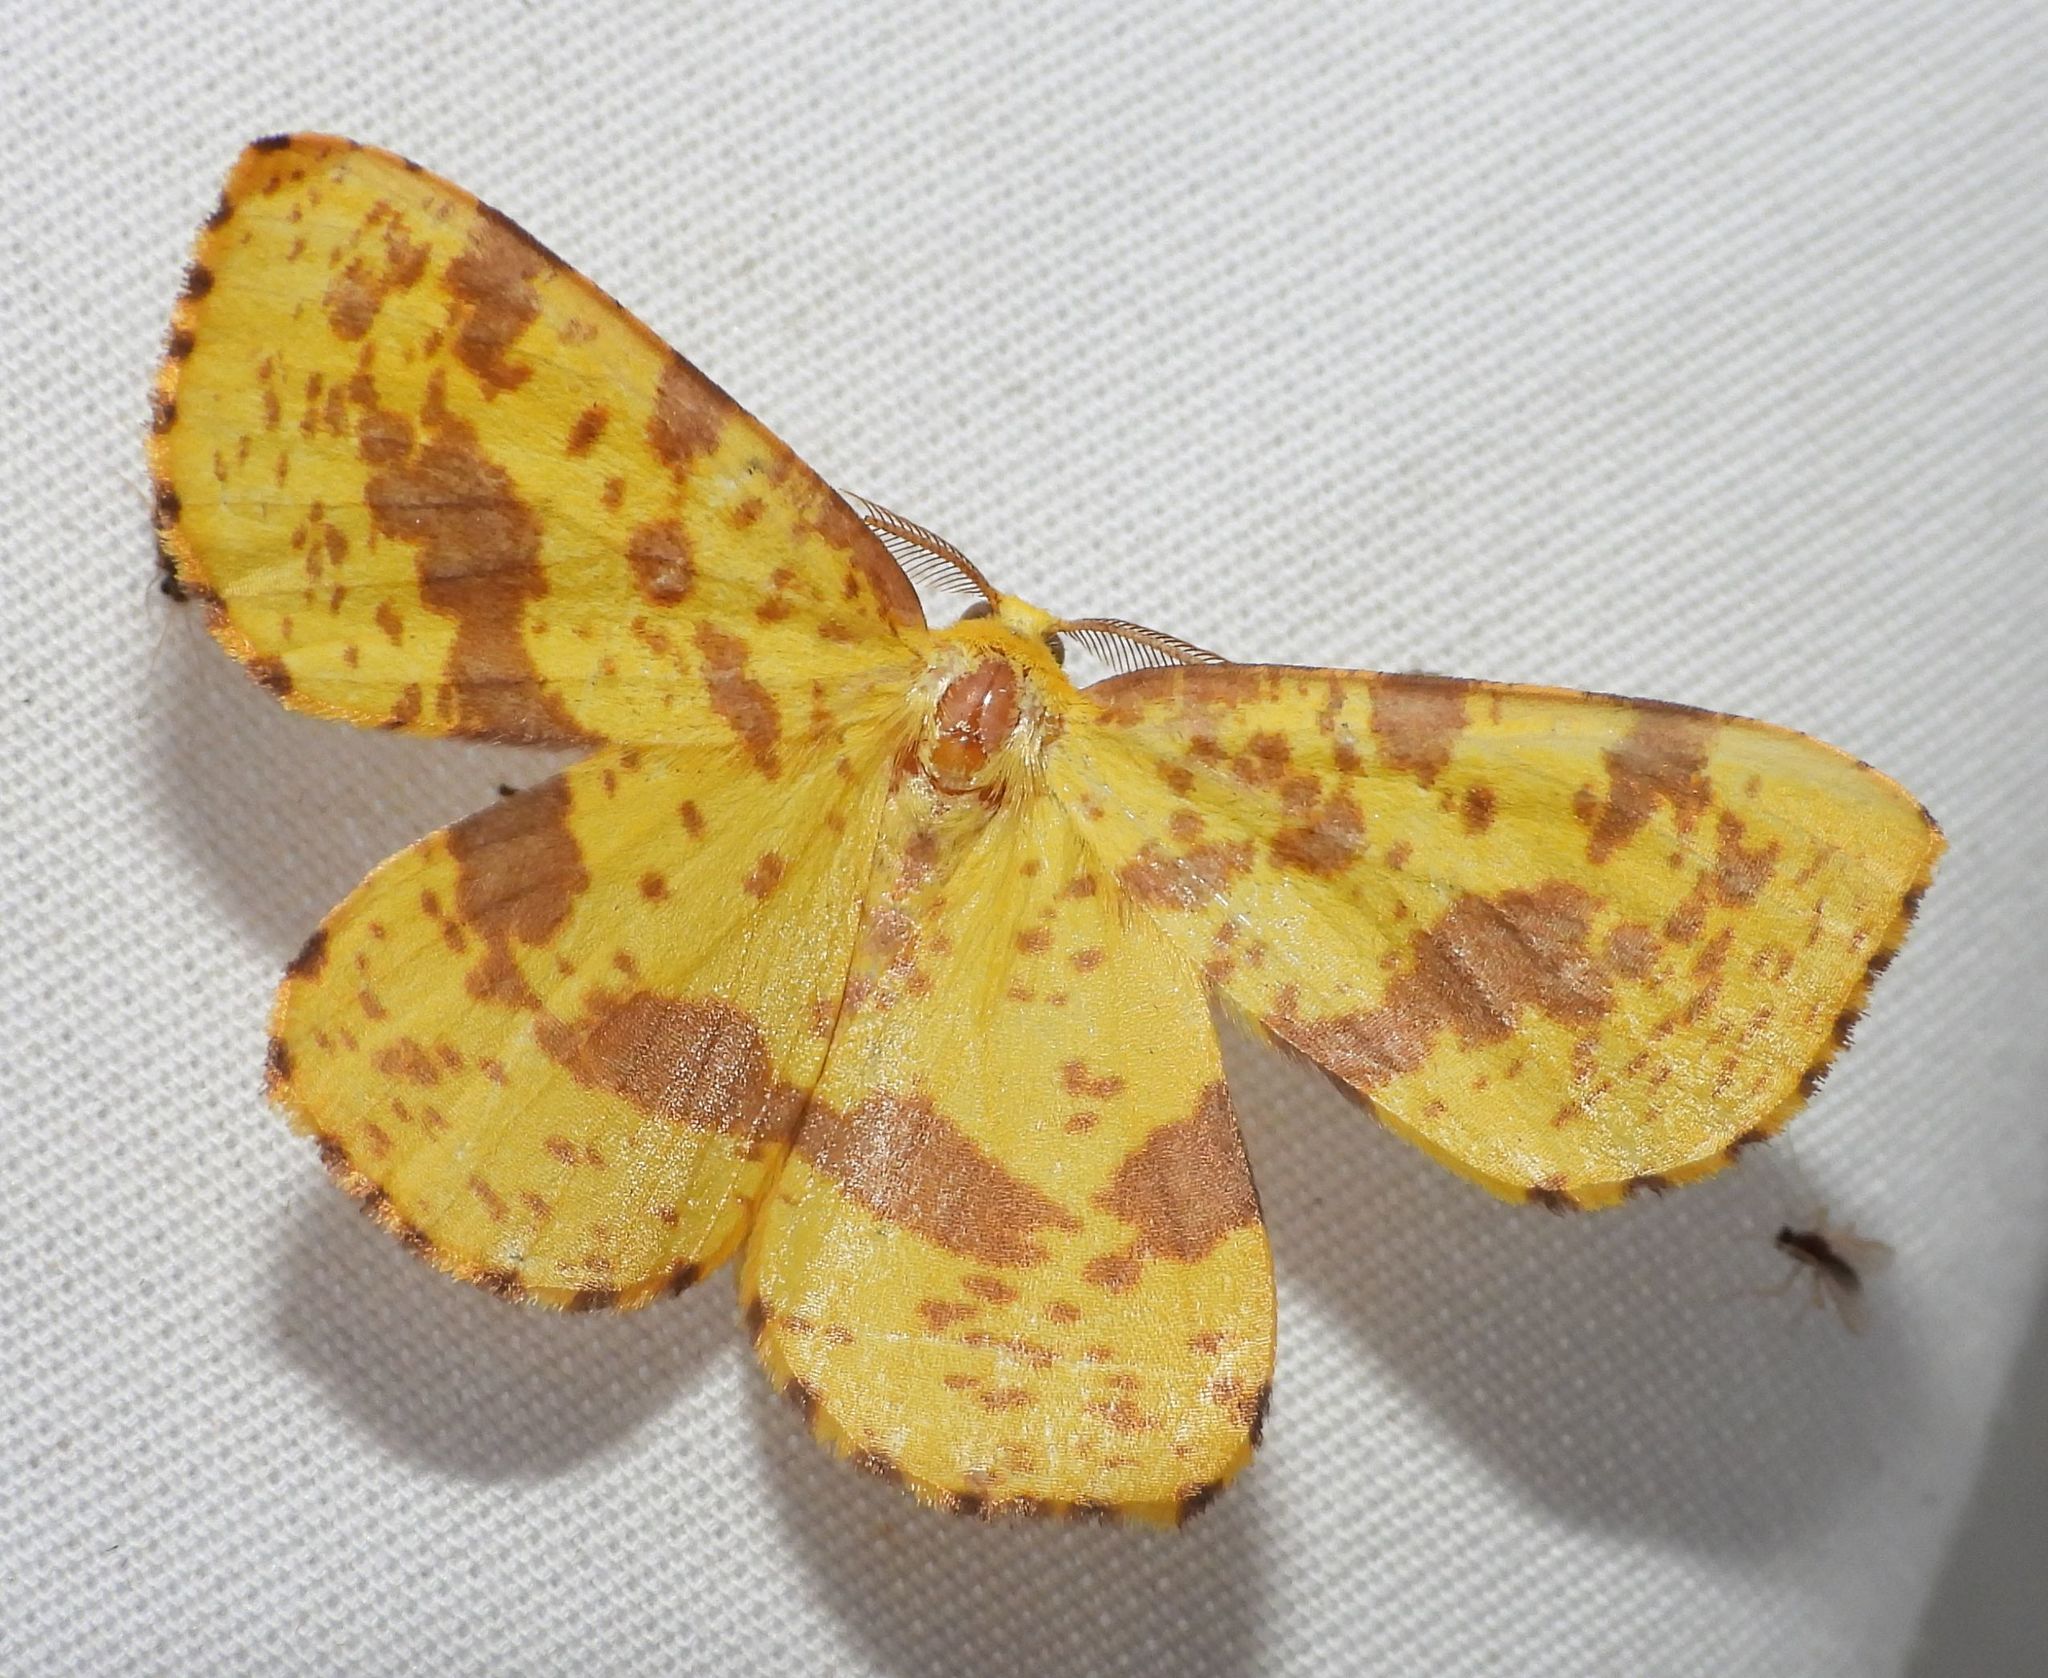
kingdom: Animalia
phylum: Arthropoda
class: Insecta
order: Lepidoptera
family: Geometridae
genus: Xanthotype
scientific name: Xanthotype
